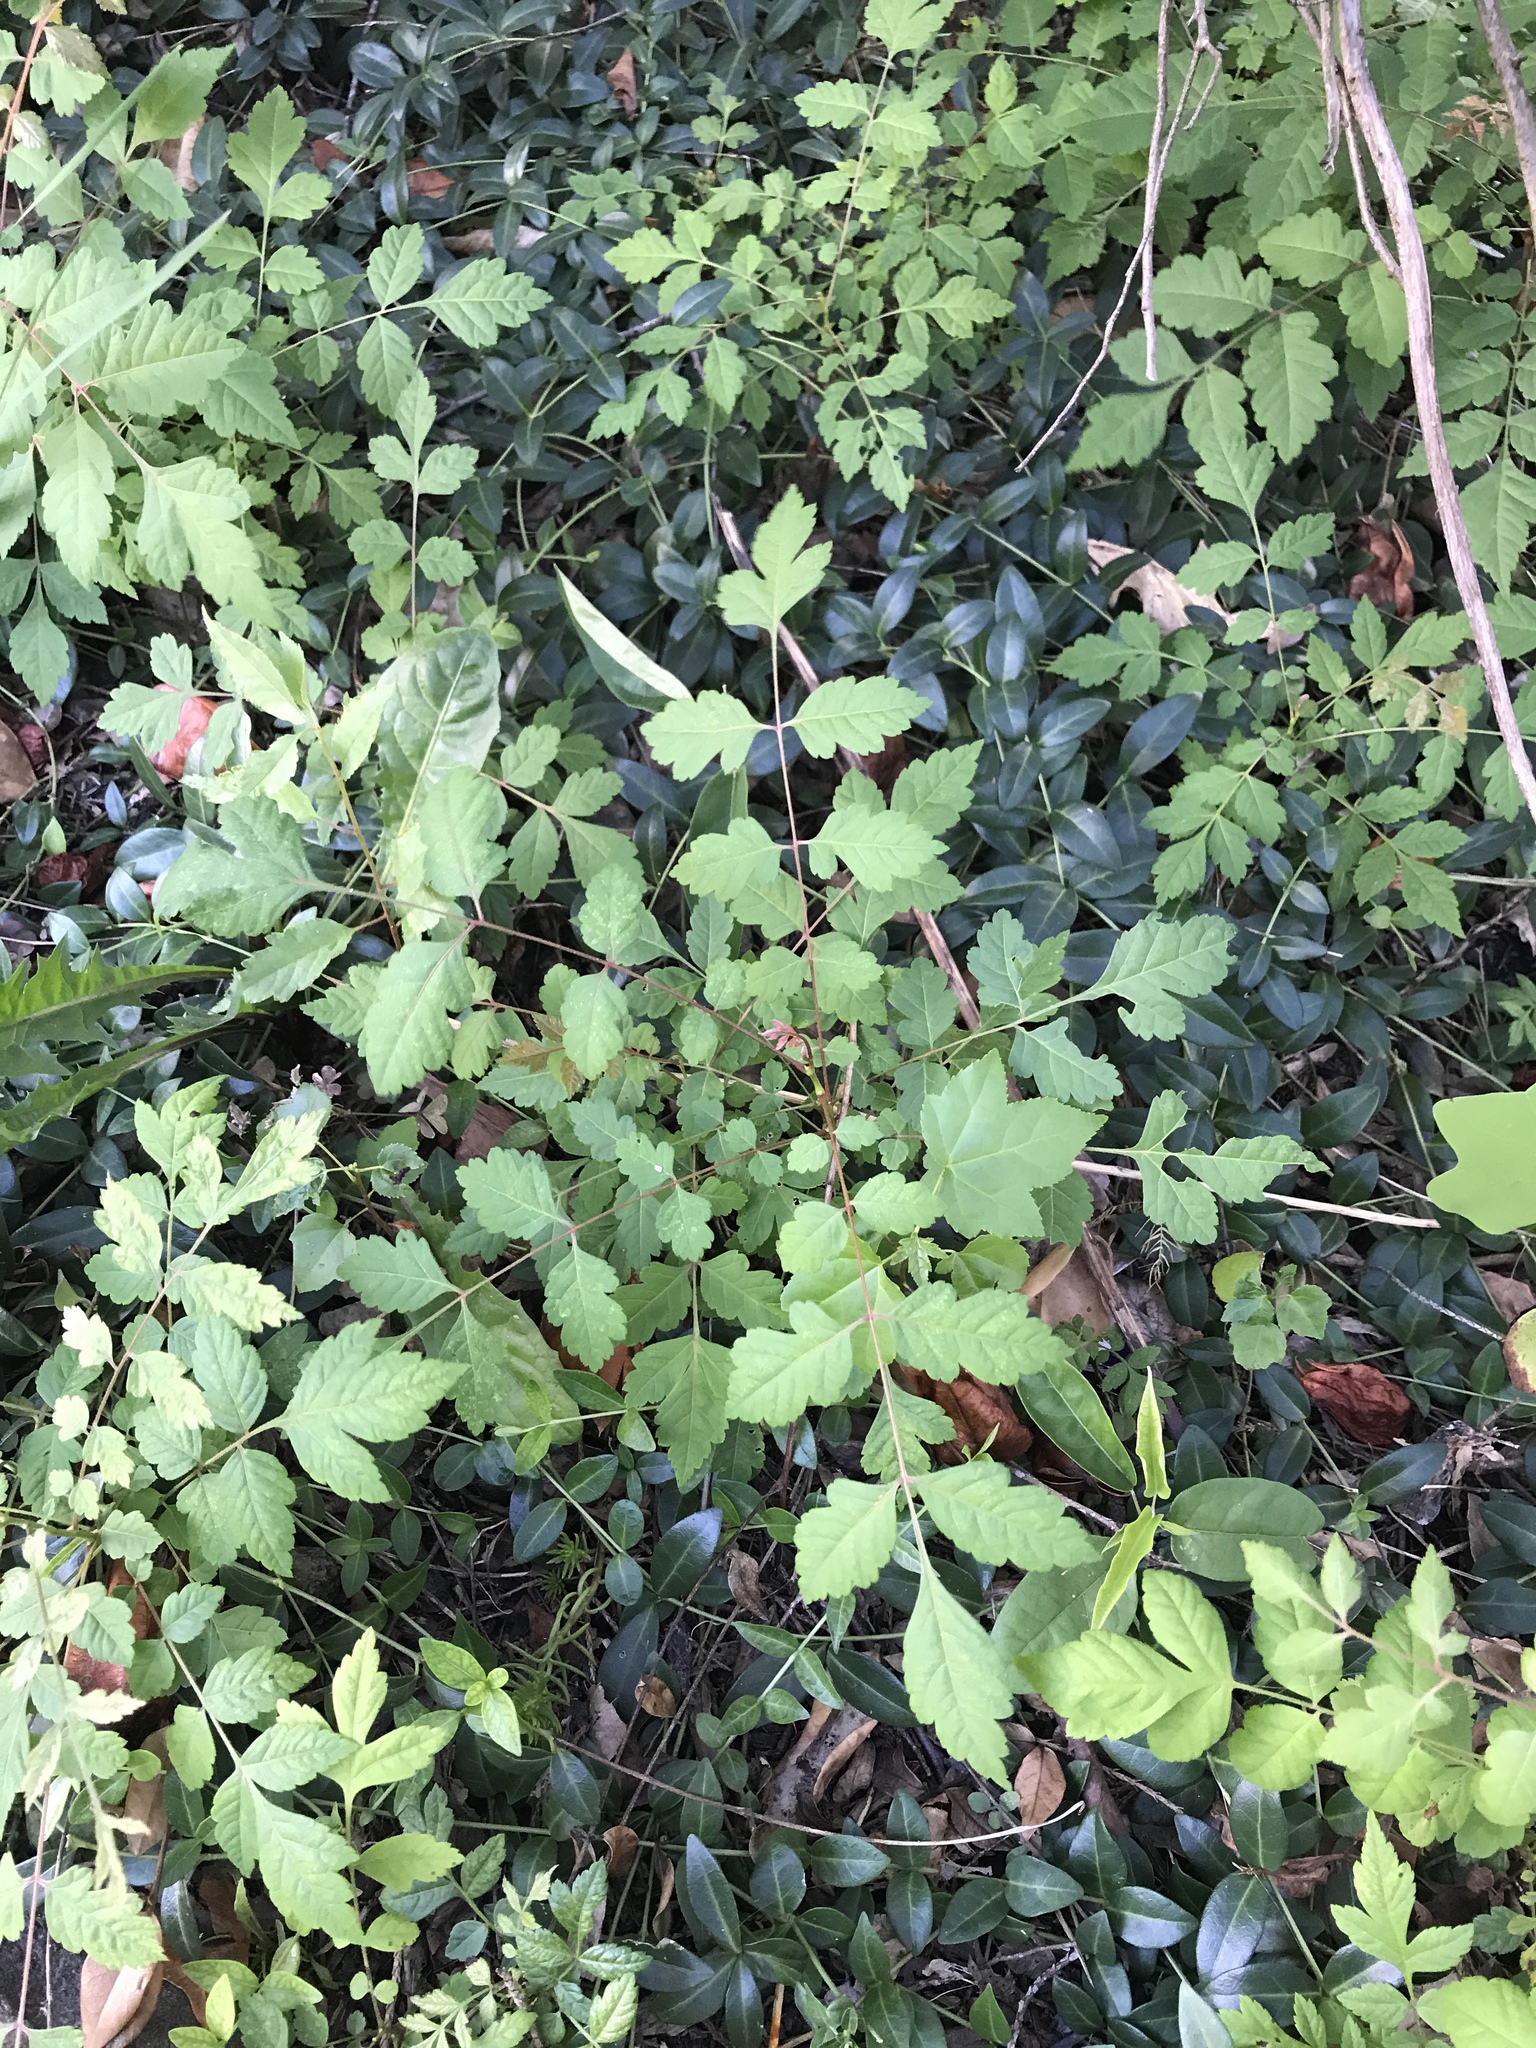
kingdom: Plantae
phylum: Tracheophyta
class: Magnoliopsida
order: Sapindales
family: Sapindaceae
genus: Koelreuteria
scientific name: Koelreuteria paniculata
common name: Pride-of-india
